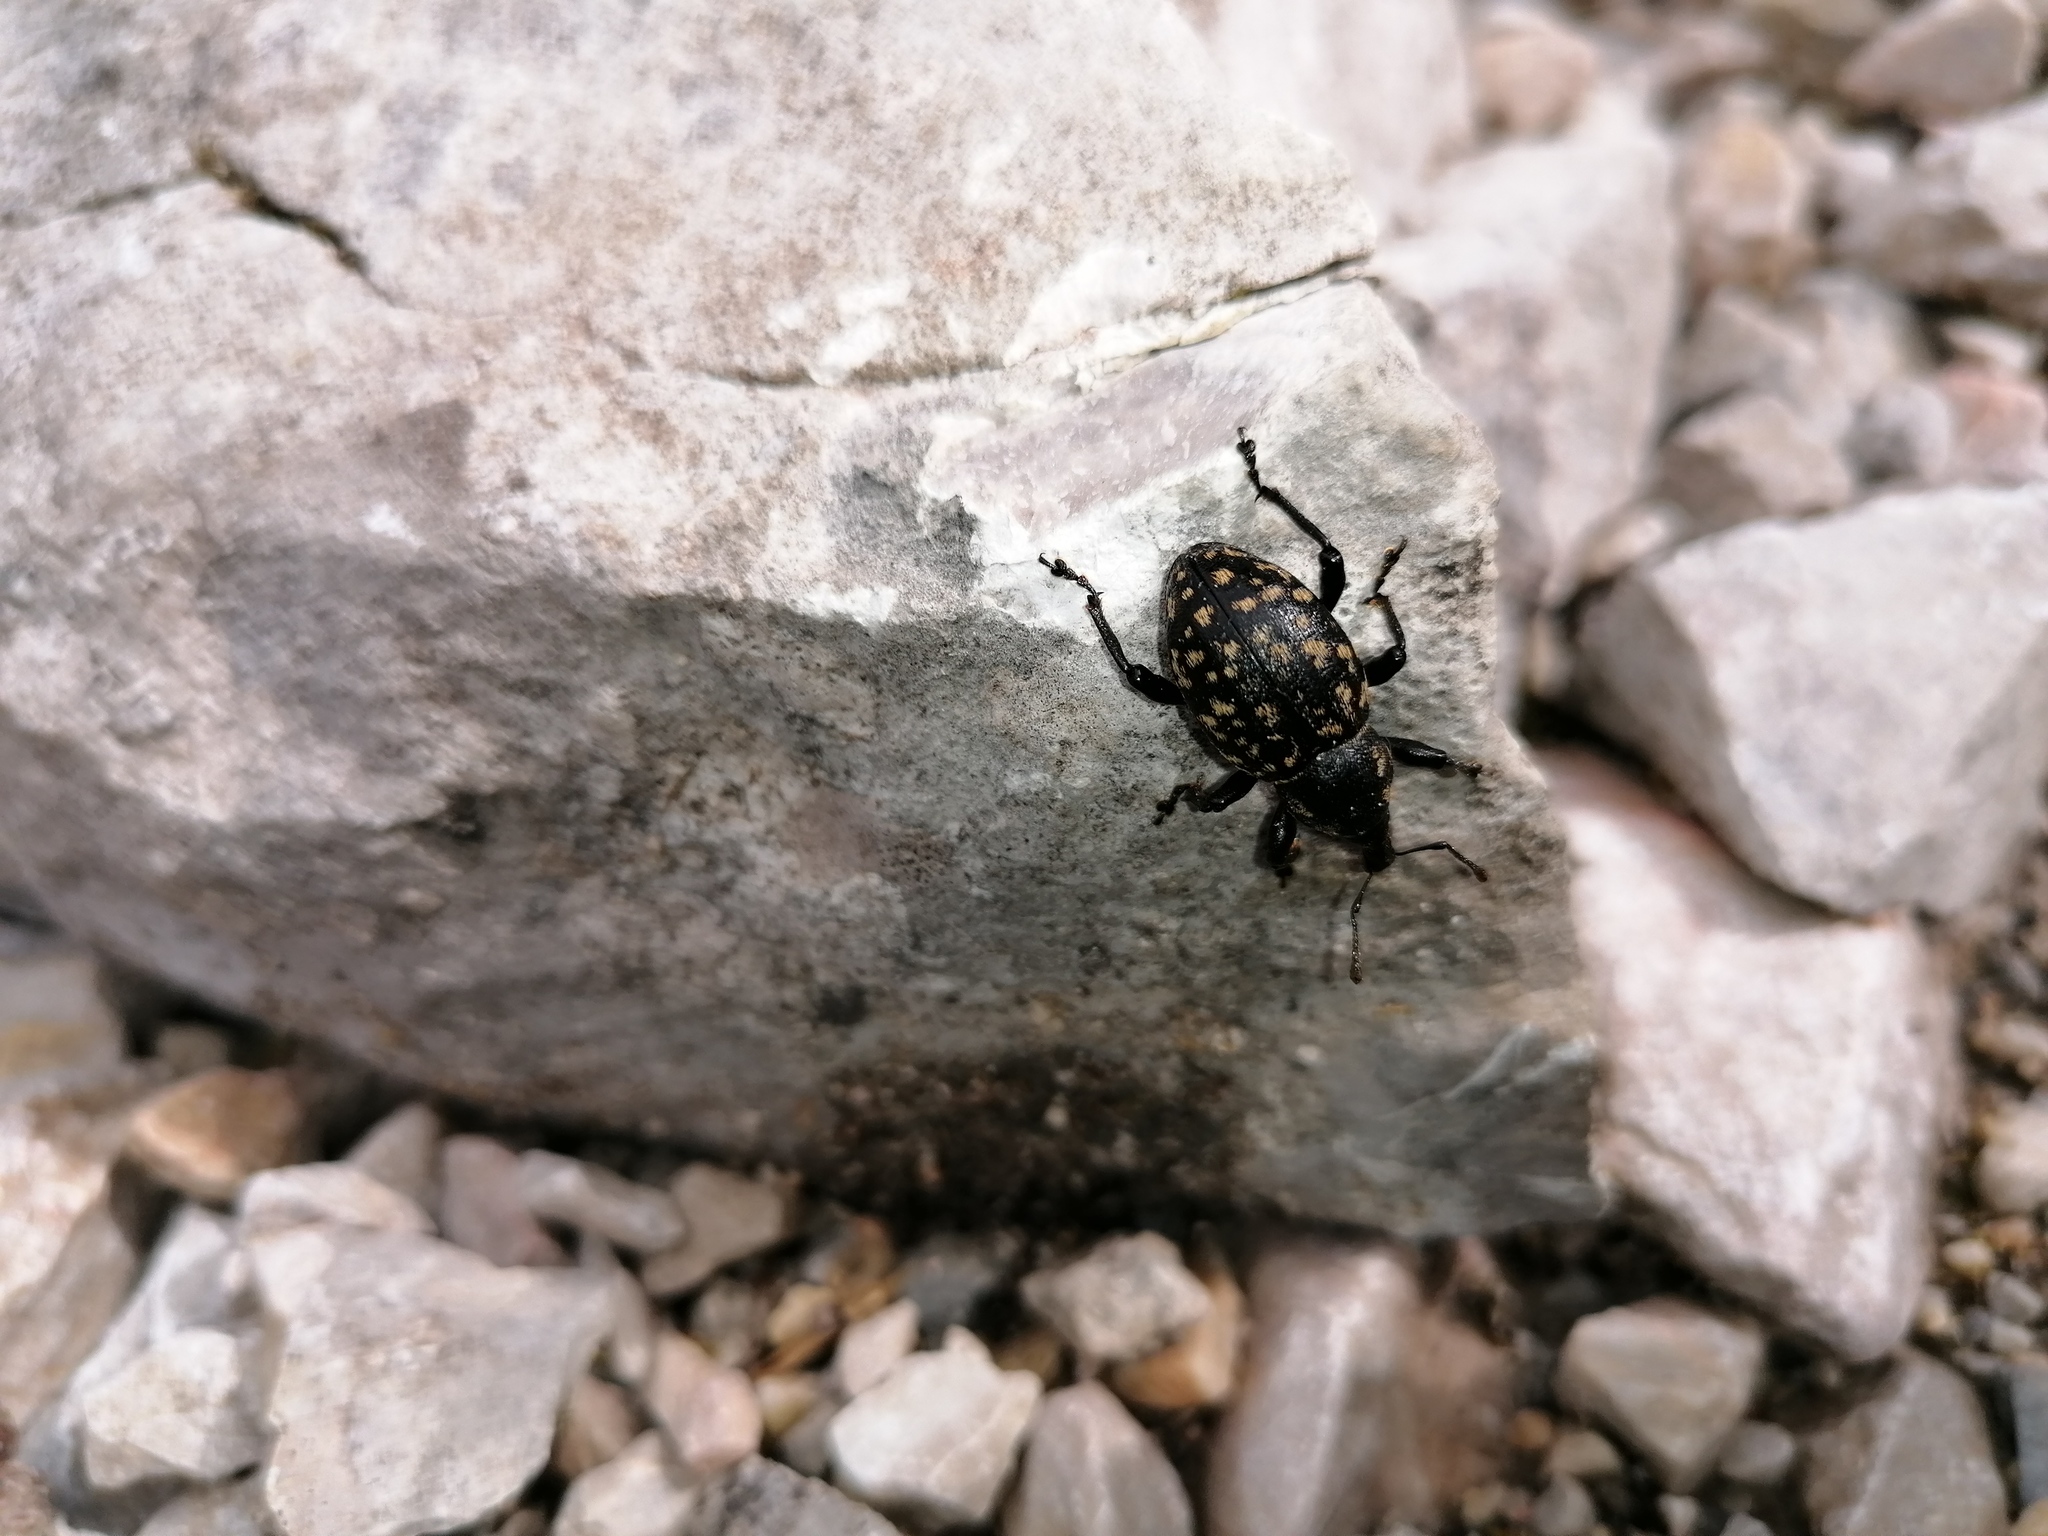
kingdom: Animalia
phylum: Arthropoda
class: Insecta
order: Coleoptera
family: Curculionidae
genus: Liparus
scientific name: Liparus germanus
